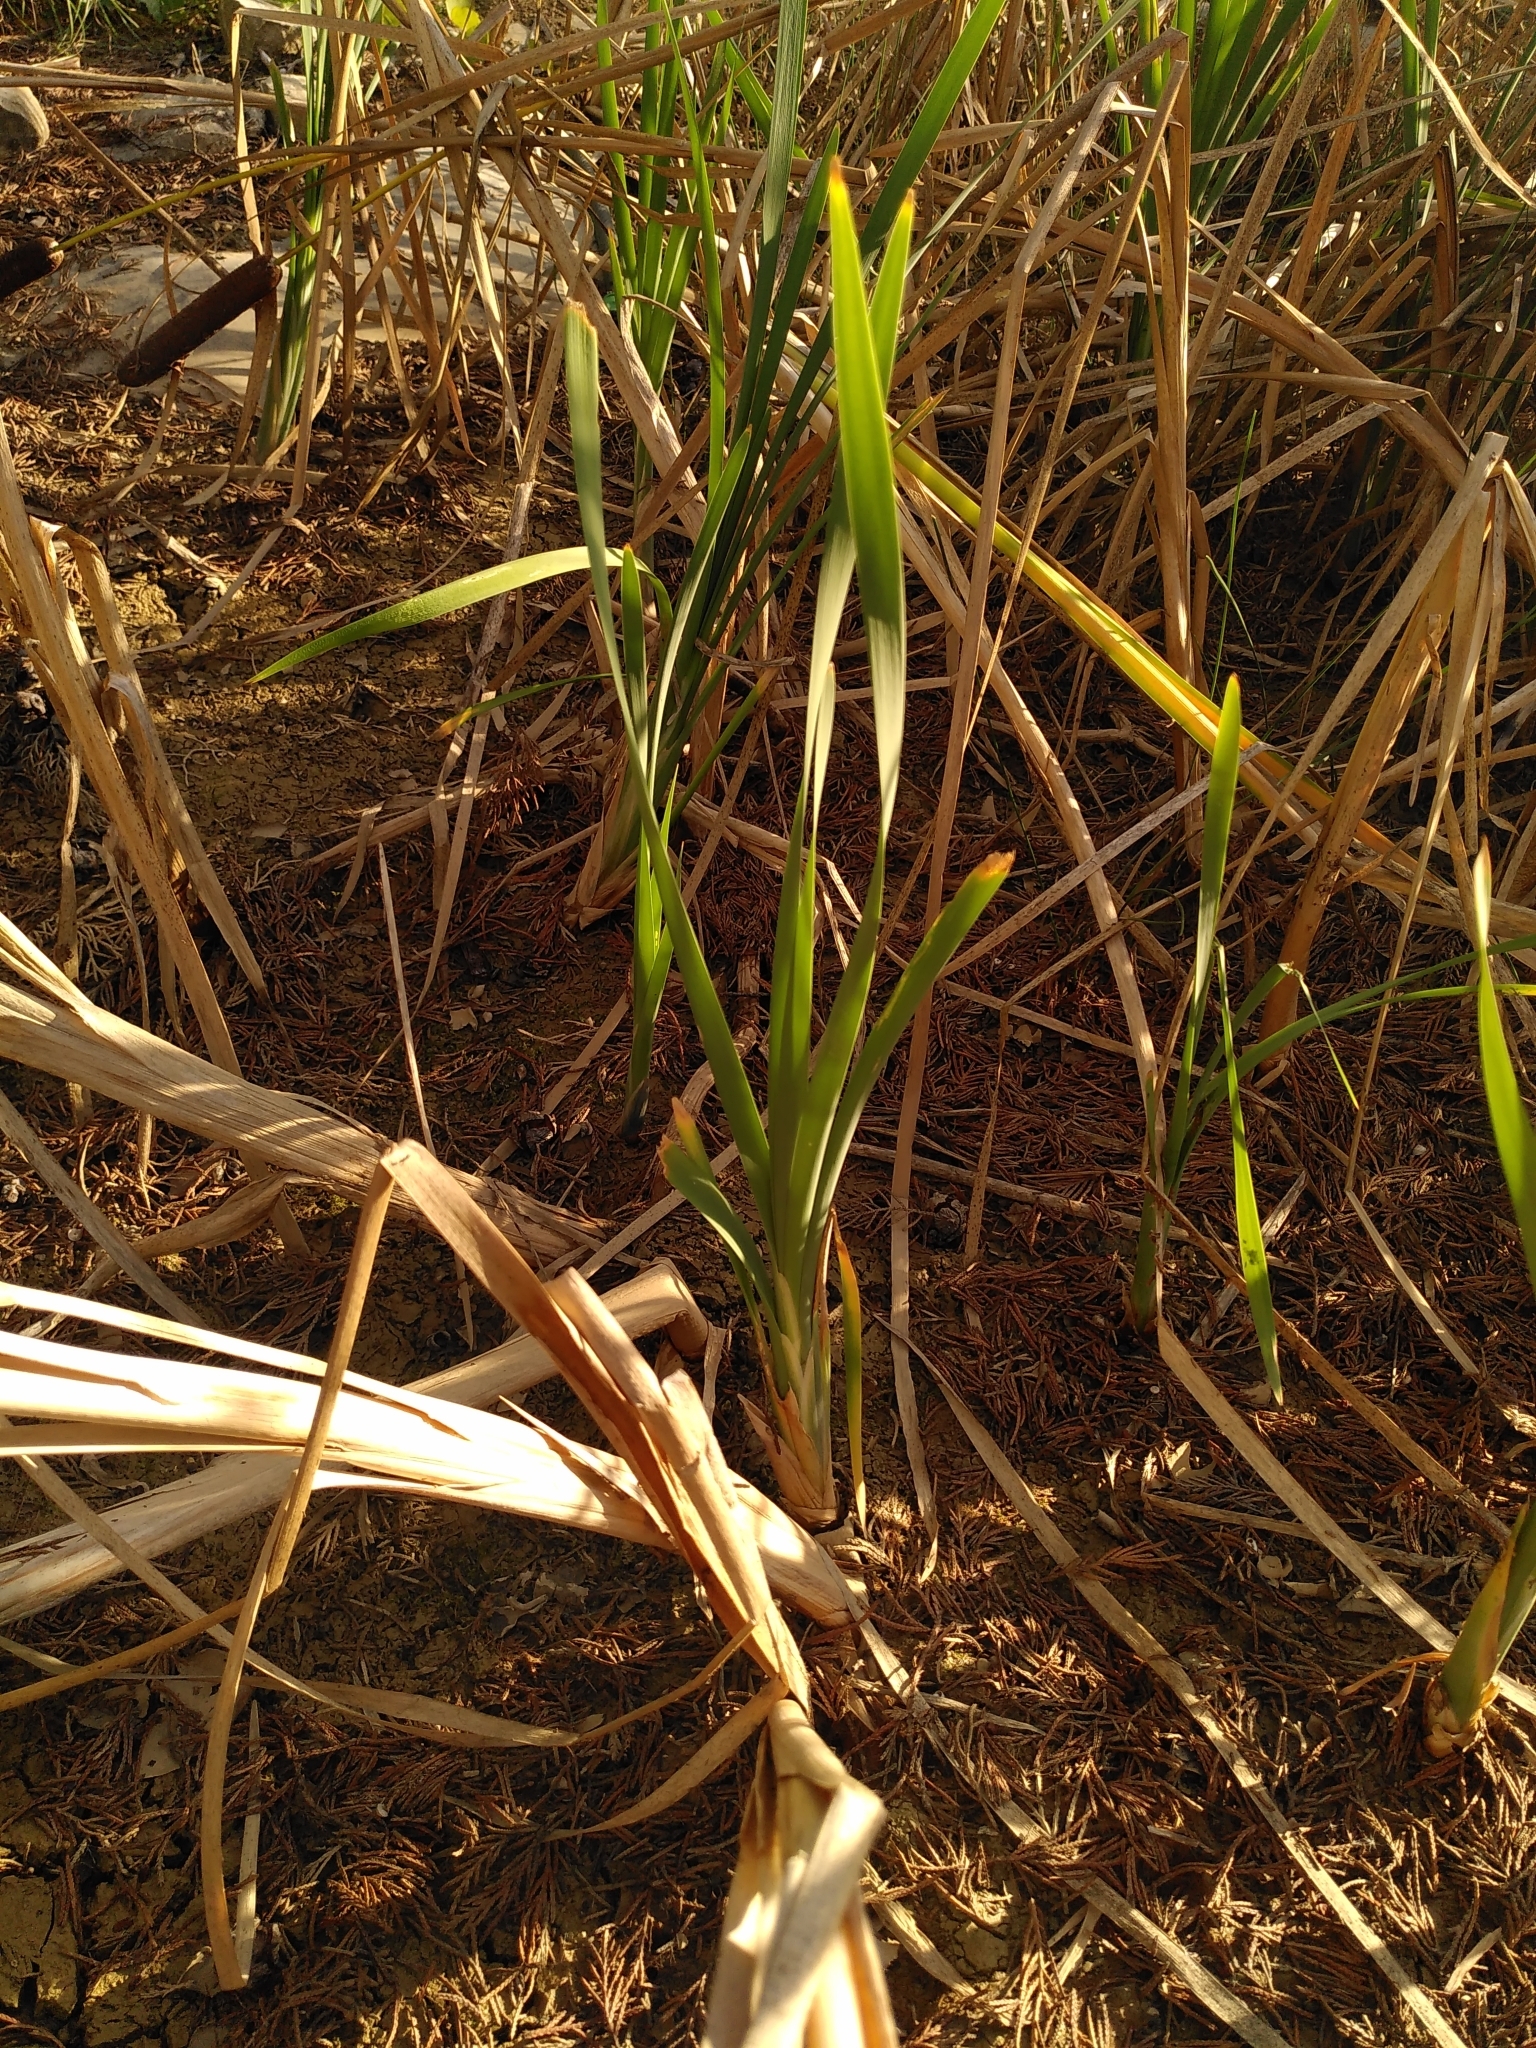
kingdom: Plantae
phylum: Tracheophyta
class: Liliopsida
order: Poales
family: Typhaceae
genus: Typha
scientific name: Typha latifolia
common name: Broadleaf cattail
